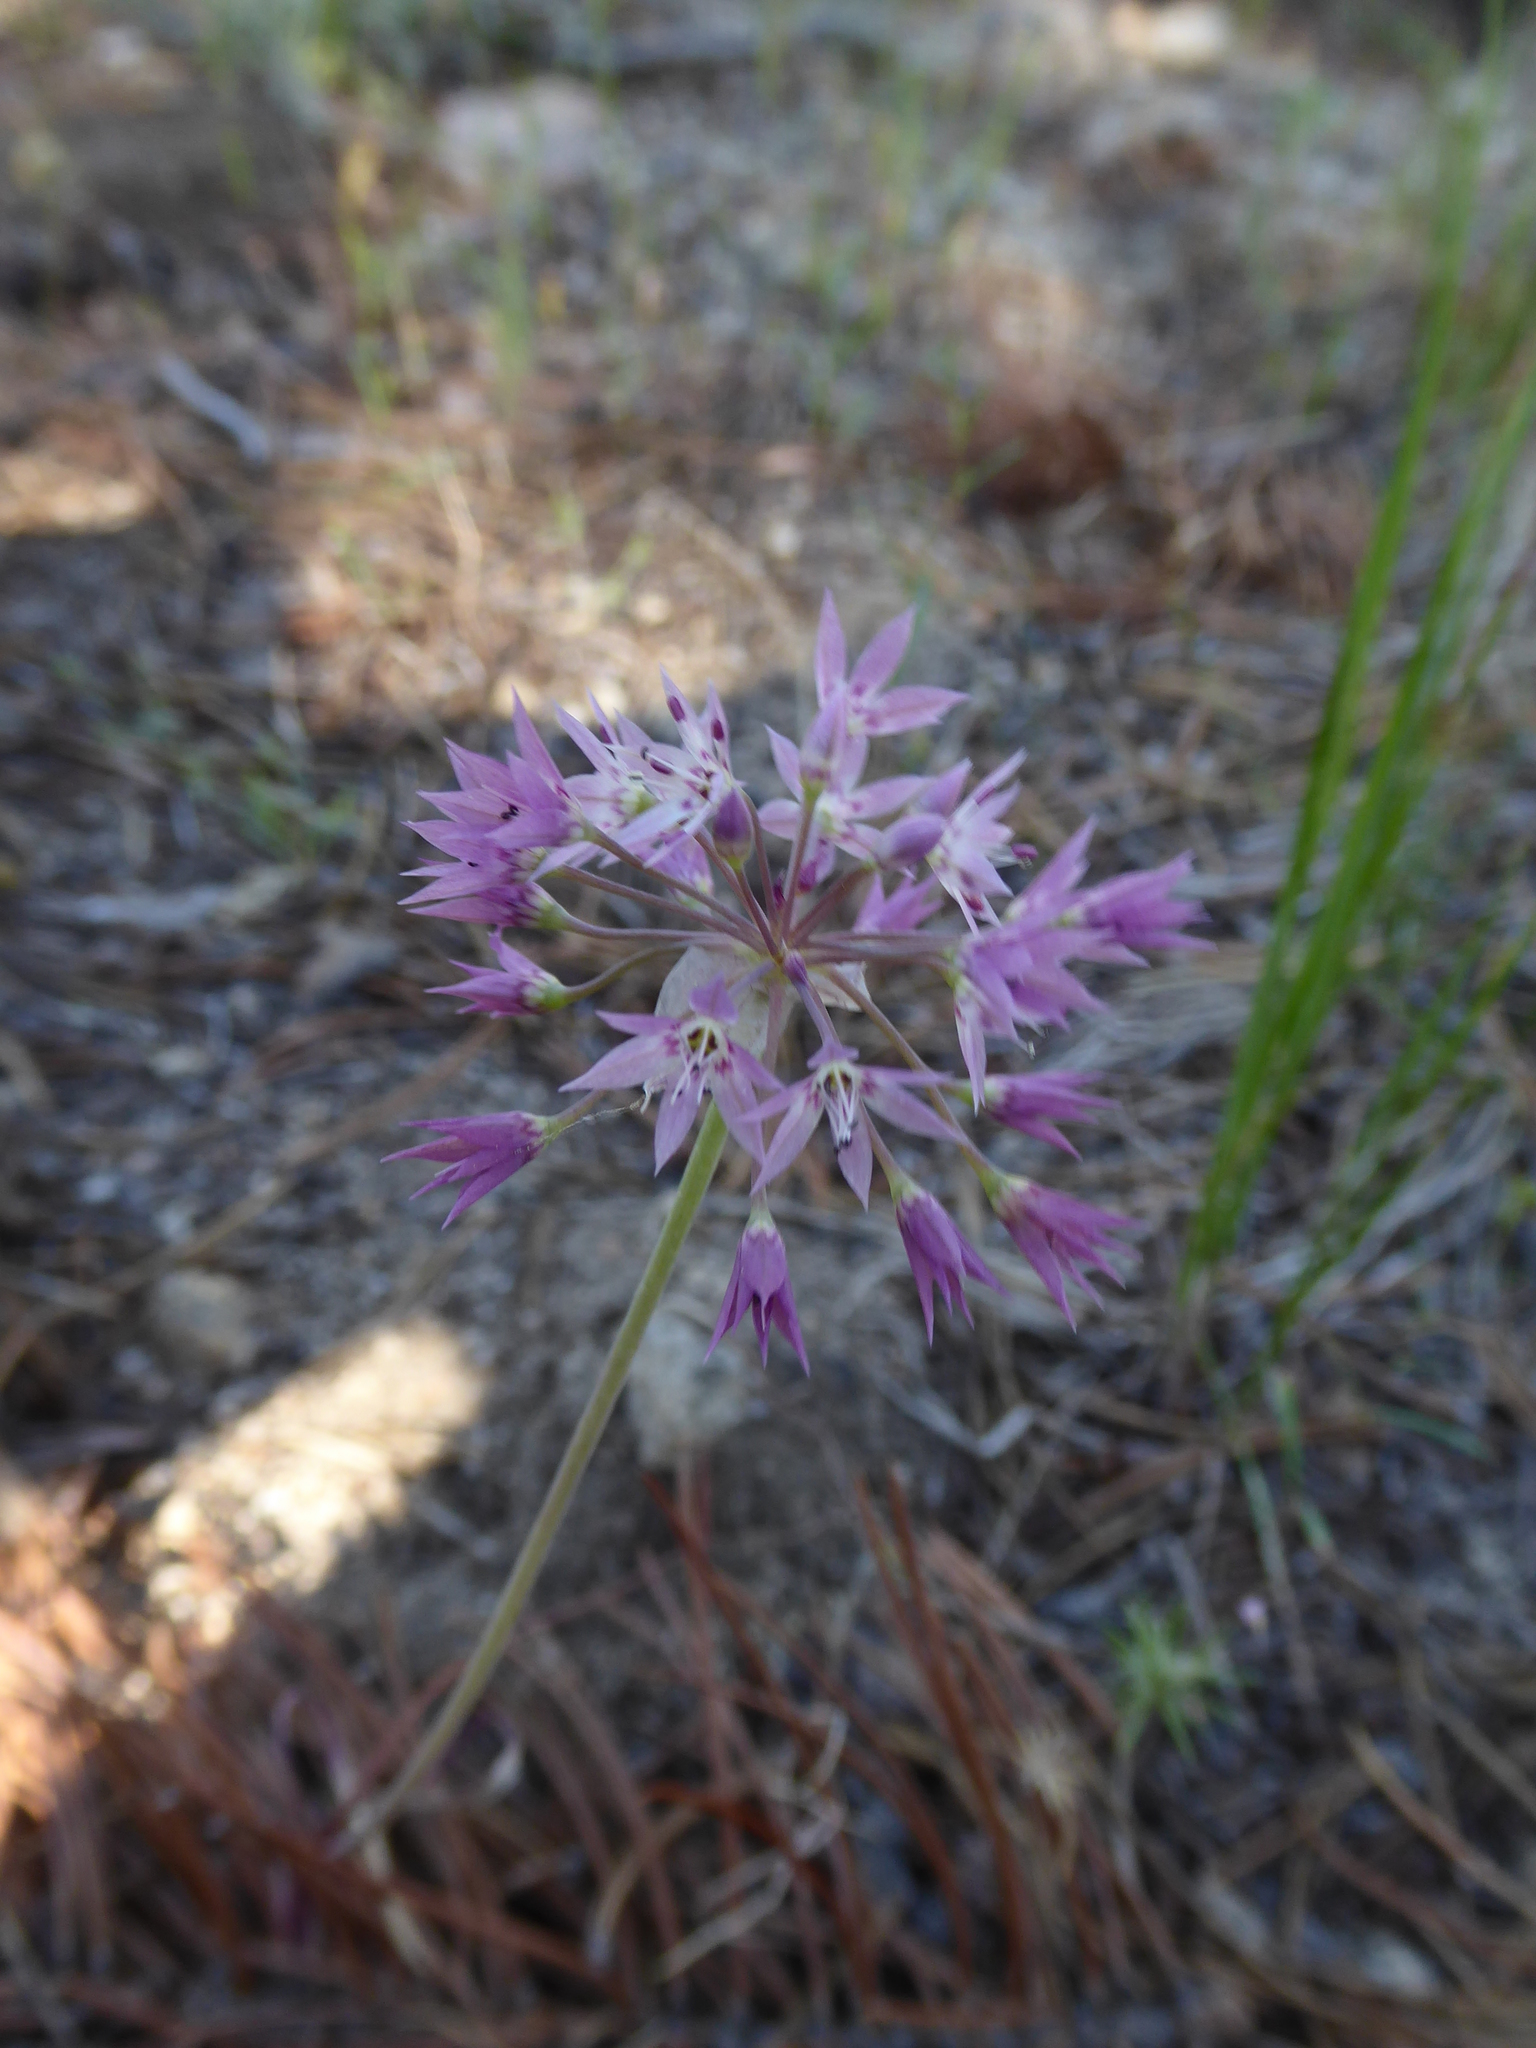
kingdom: Plantae
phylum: Tracheophyta
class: Liliopsida
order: Asparagales
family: Amaryllidaceae
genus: Allium
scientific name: Allium campanulatum
